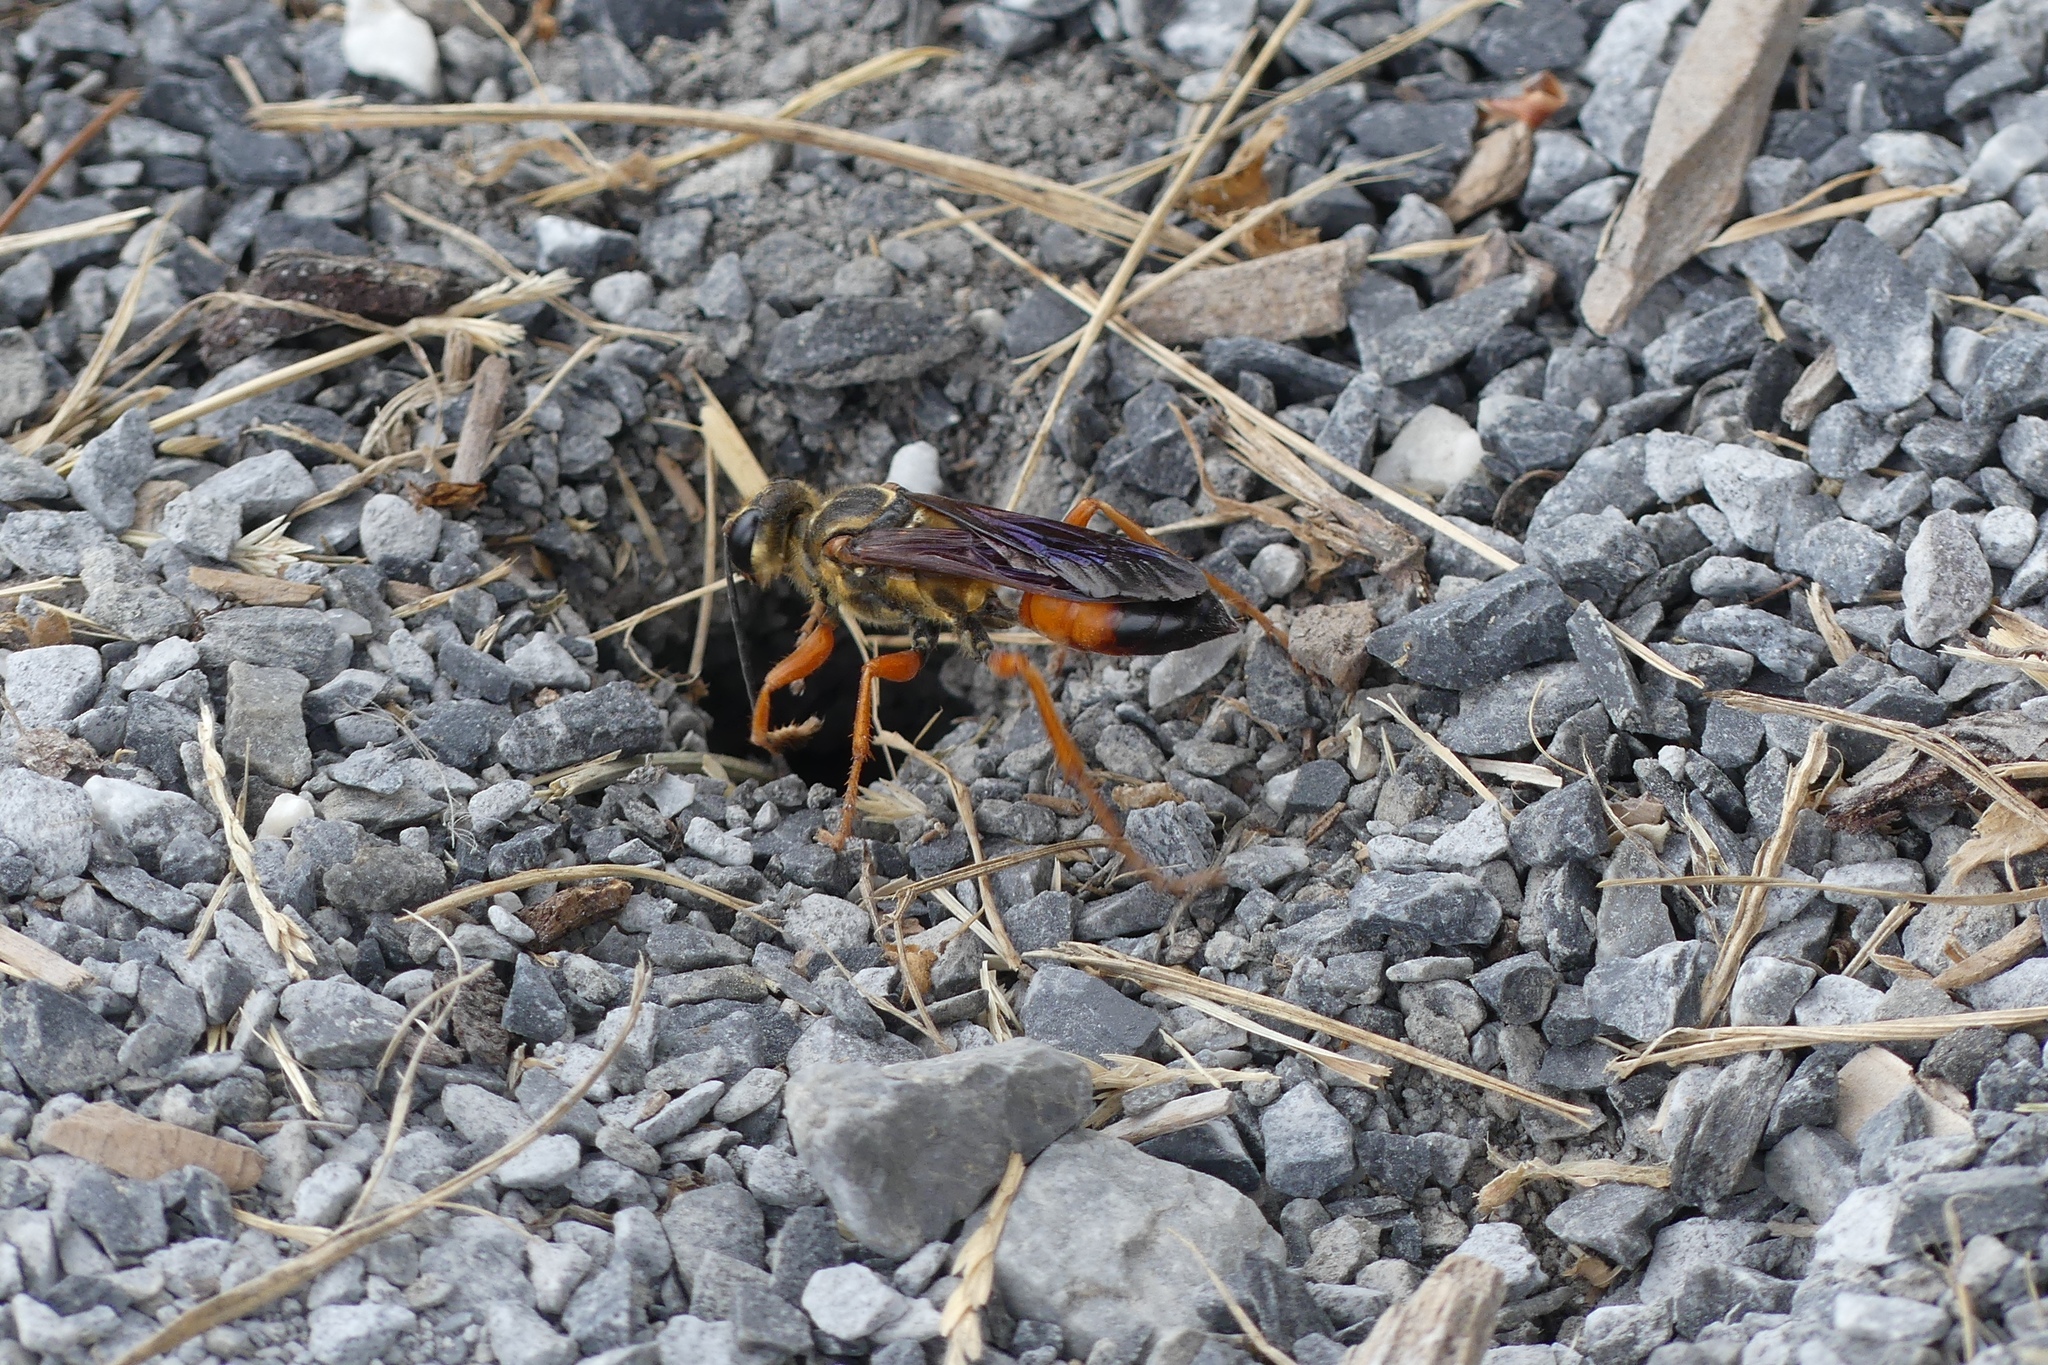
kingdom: Animalia
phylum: Arthropoda
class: Insecta
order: Hymenoptera
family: Sphecidae
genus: Sphex
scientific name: Sphex ichneumoneus
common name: Great golden digger wasp
